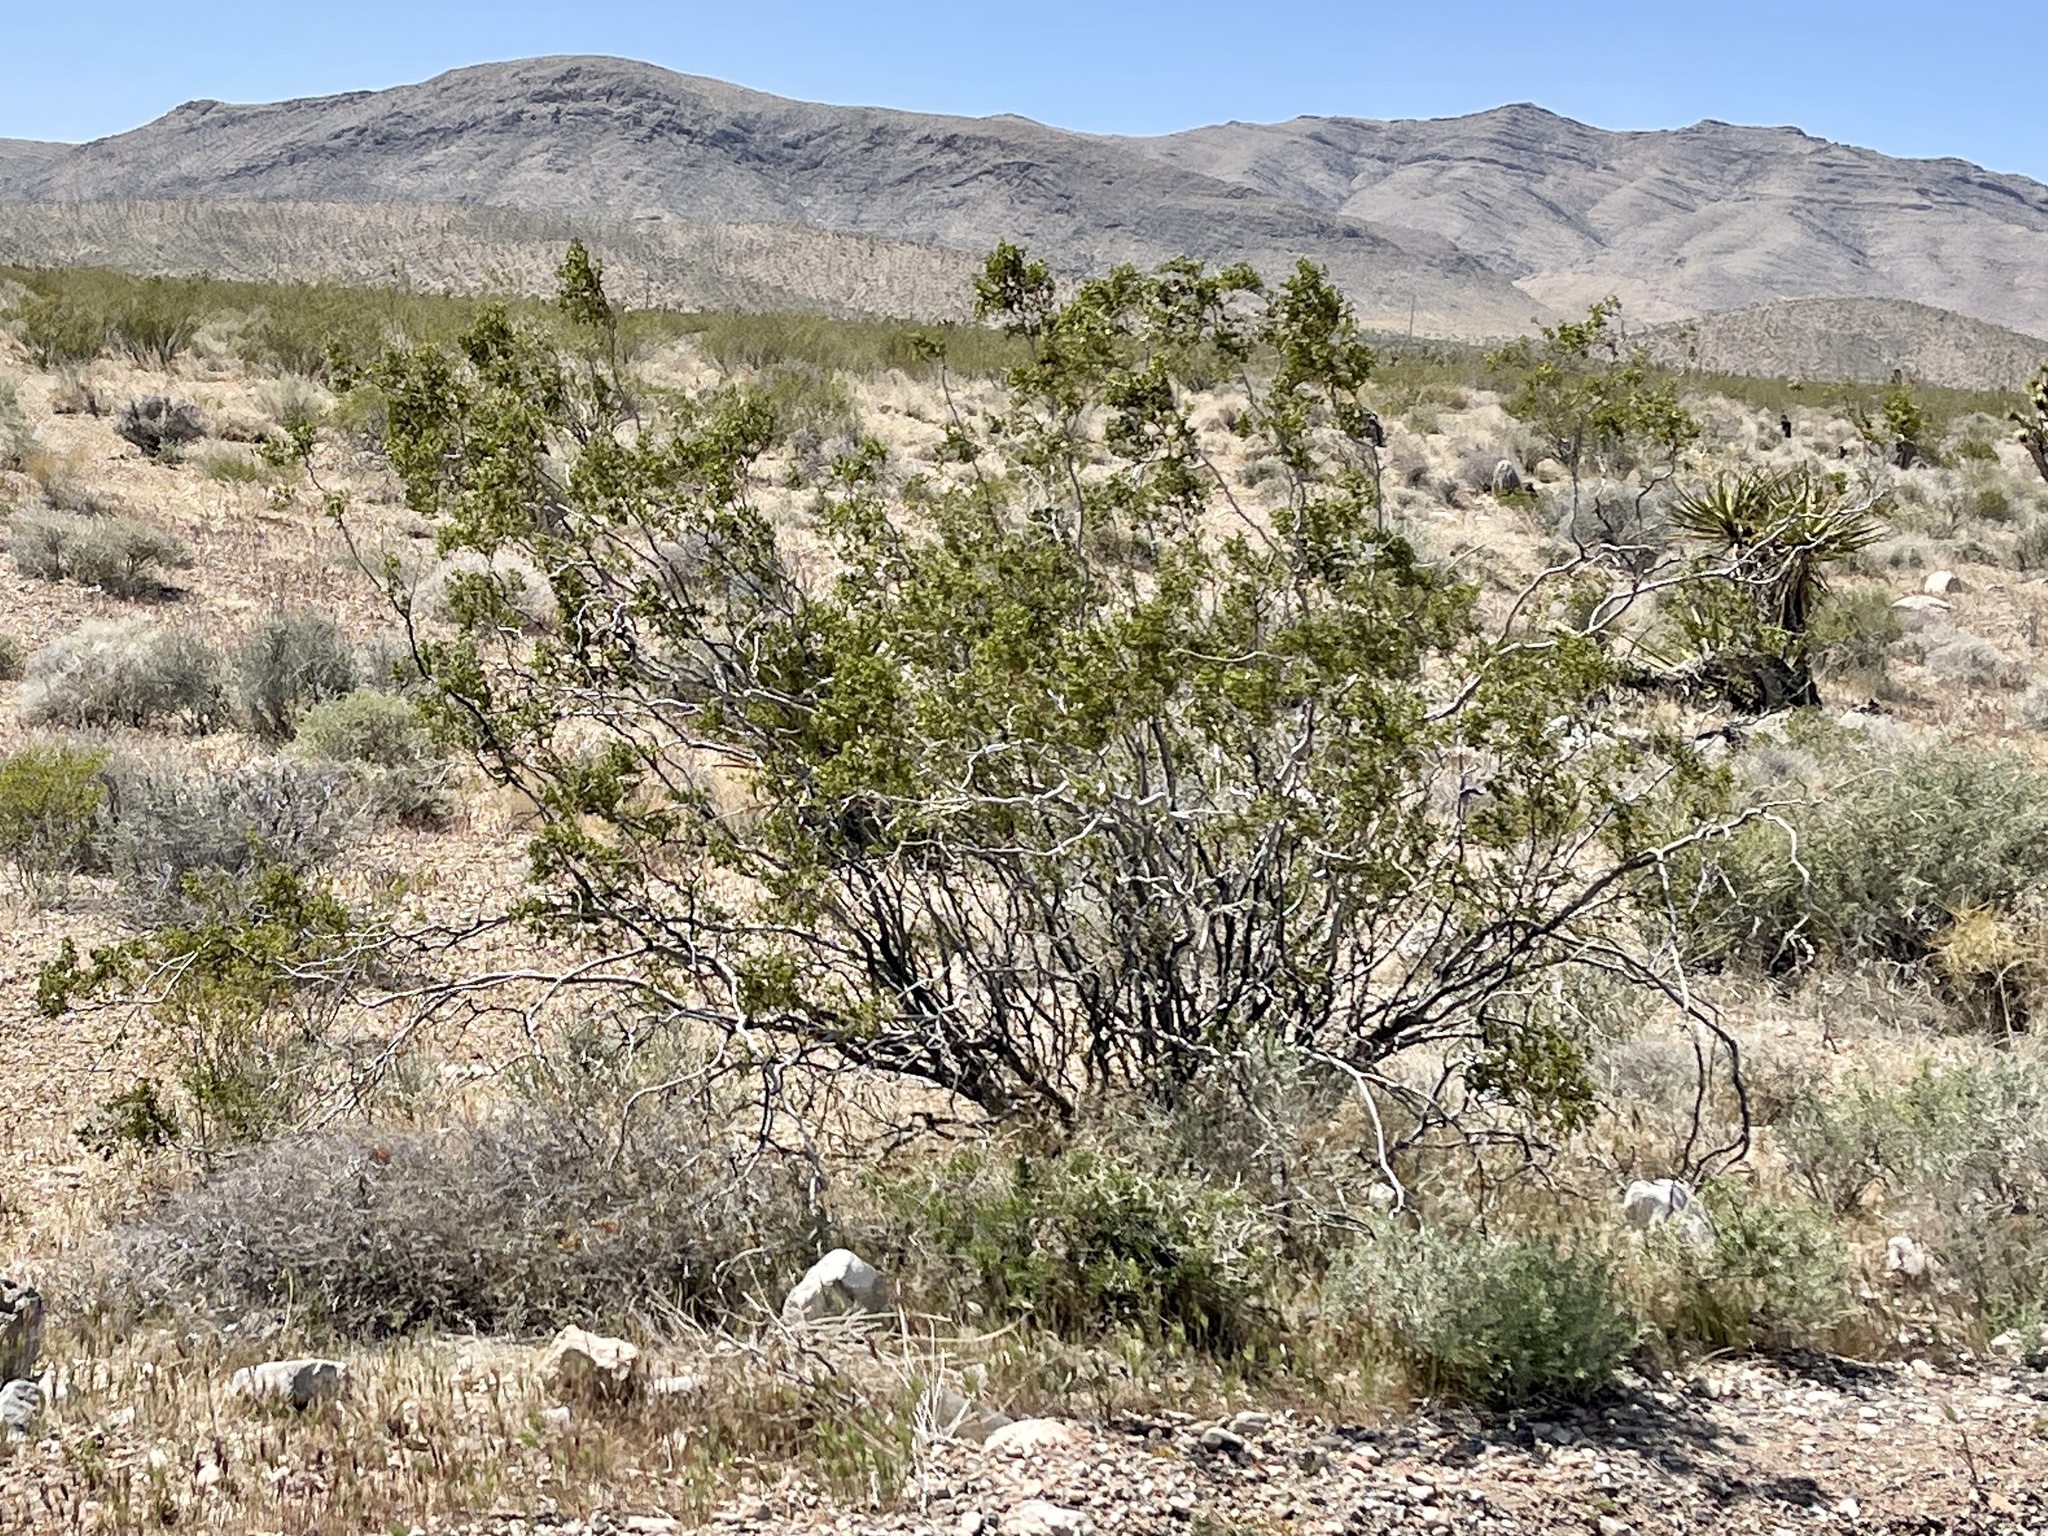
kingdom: Plantae
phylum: Tracheophyta
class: Magnoliopsida
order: Zygophyllales
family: Zygophyllaceae
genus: Larrea
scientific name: Larrea tridentata
